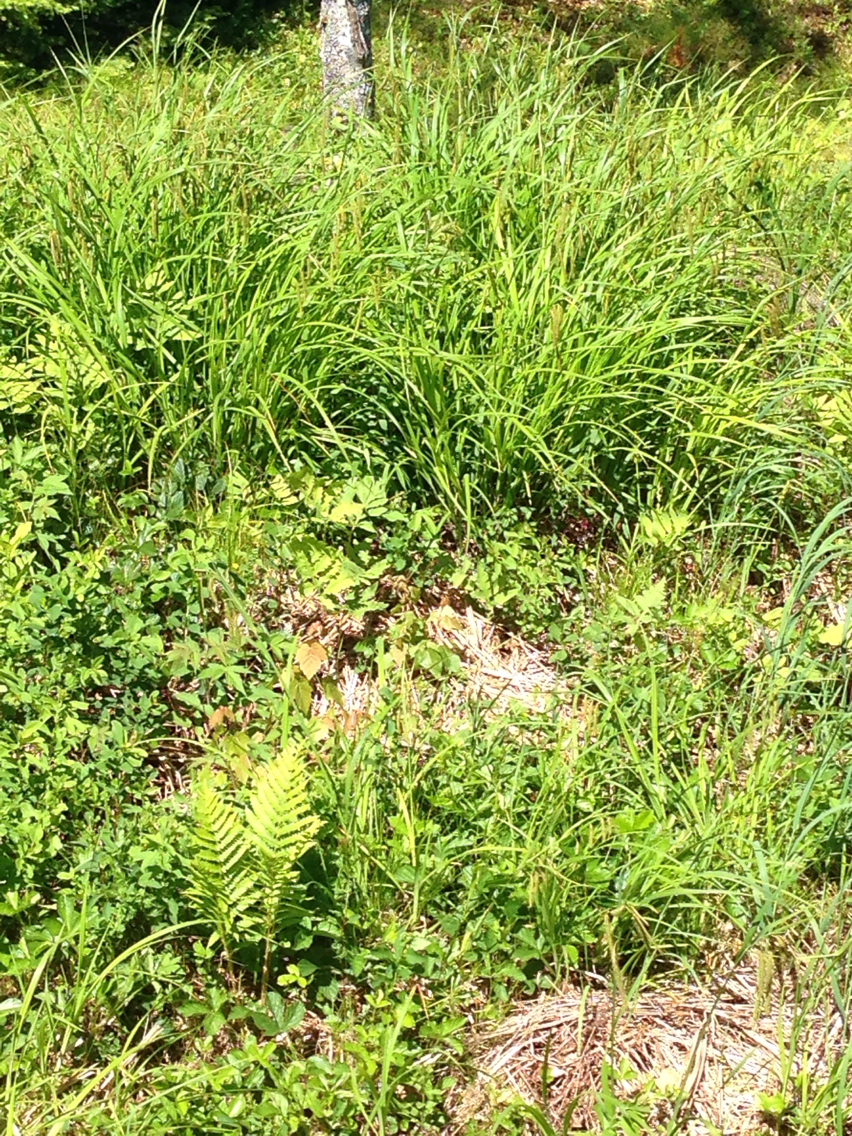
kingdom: Plantae
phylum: Tracheophyta
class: Polypodiopsida
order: Polypodiales
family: Onocleaceae
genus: Onoclea
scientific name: Onoclea sensibilis
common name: Sensitive fern
